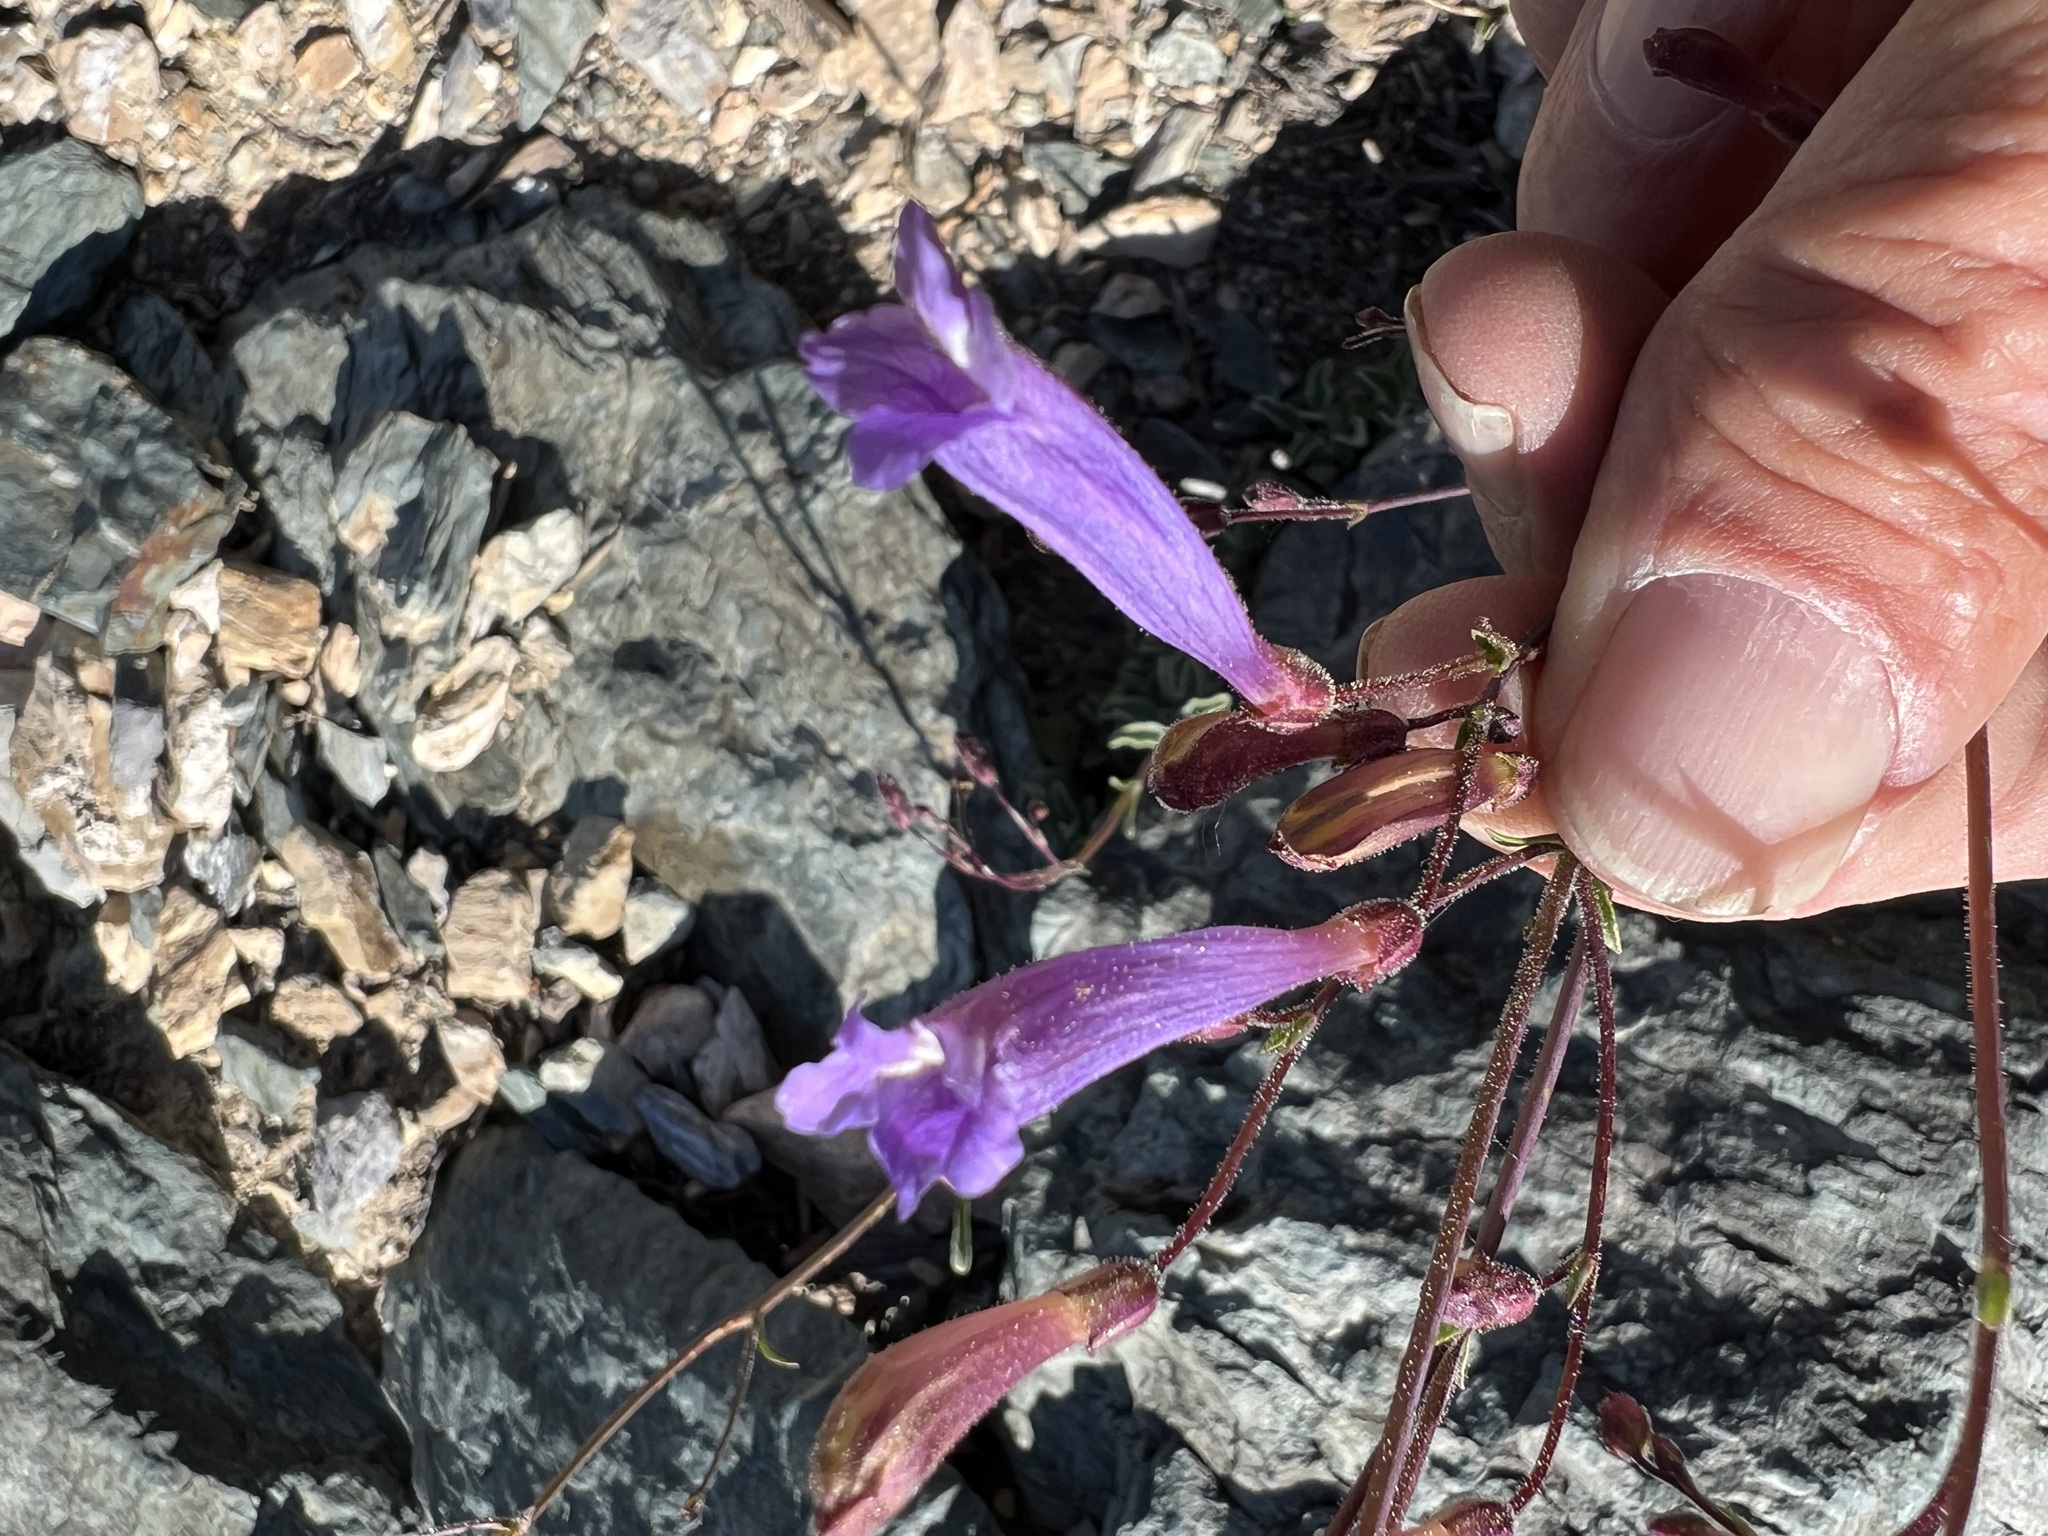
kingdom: Plantae
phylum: Tracheophyta
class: Magnoliopsida
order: Lamiales
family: Plantaginaceae
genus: Penstemon
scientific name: Penstemon scapoides
